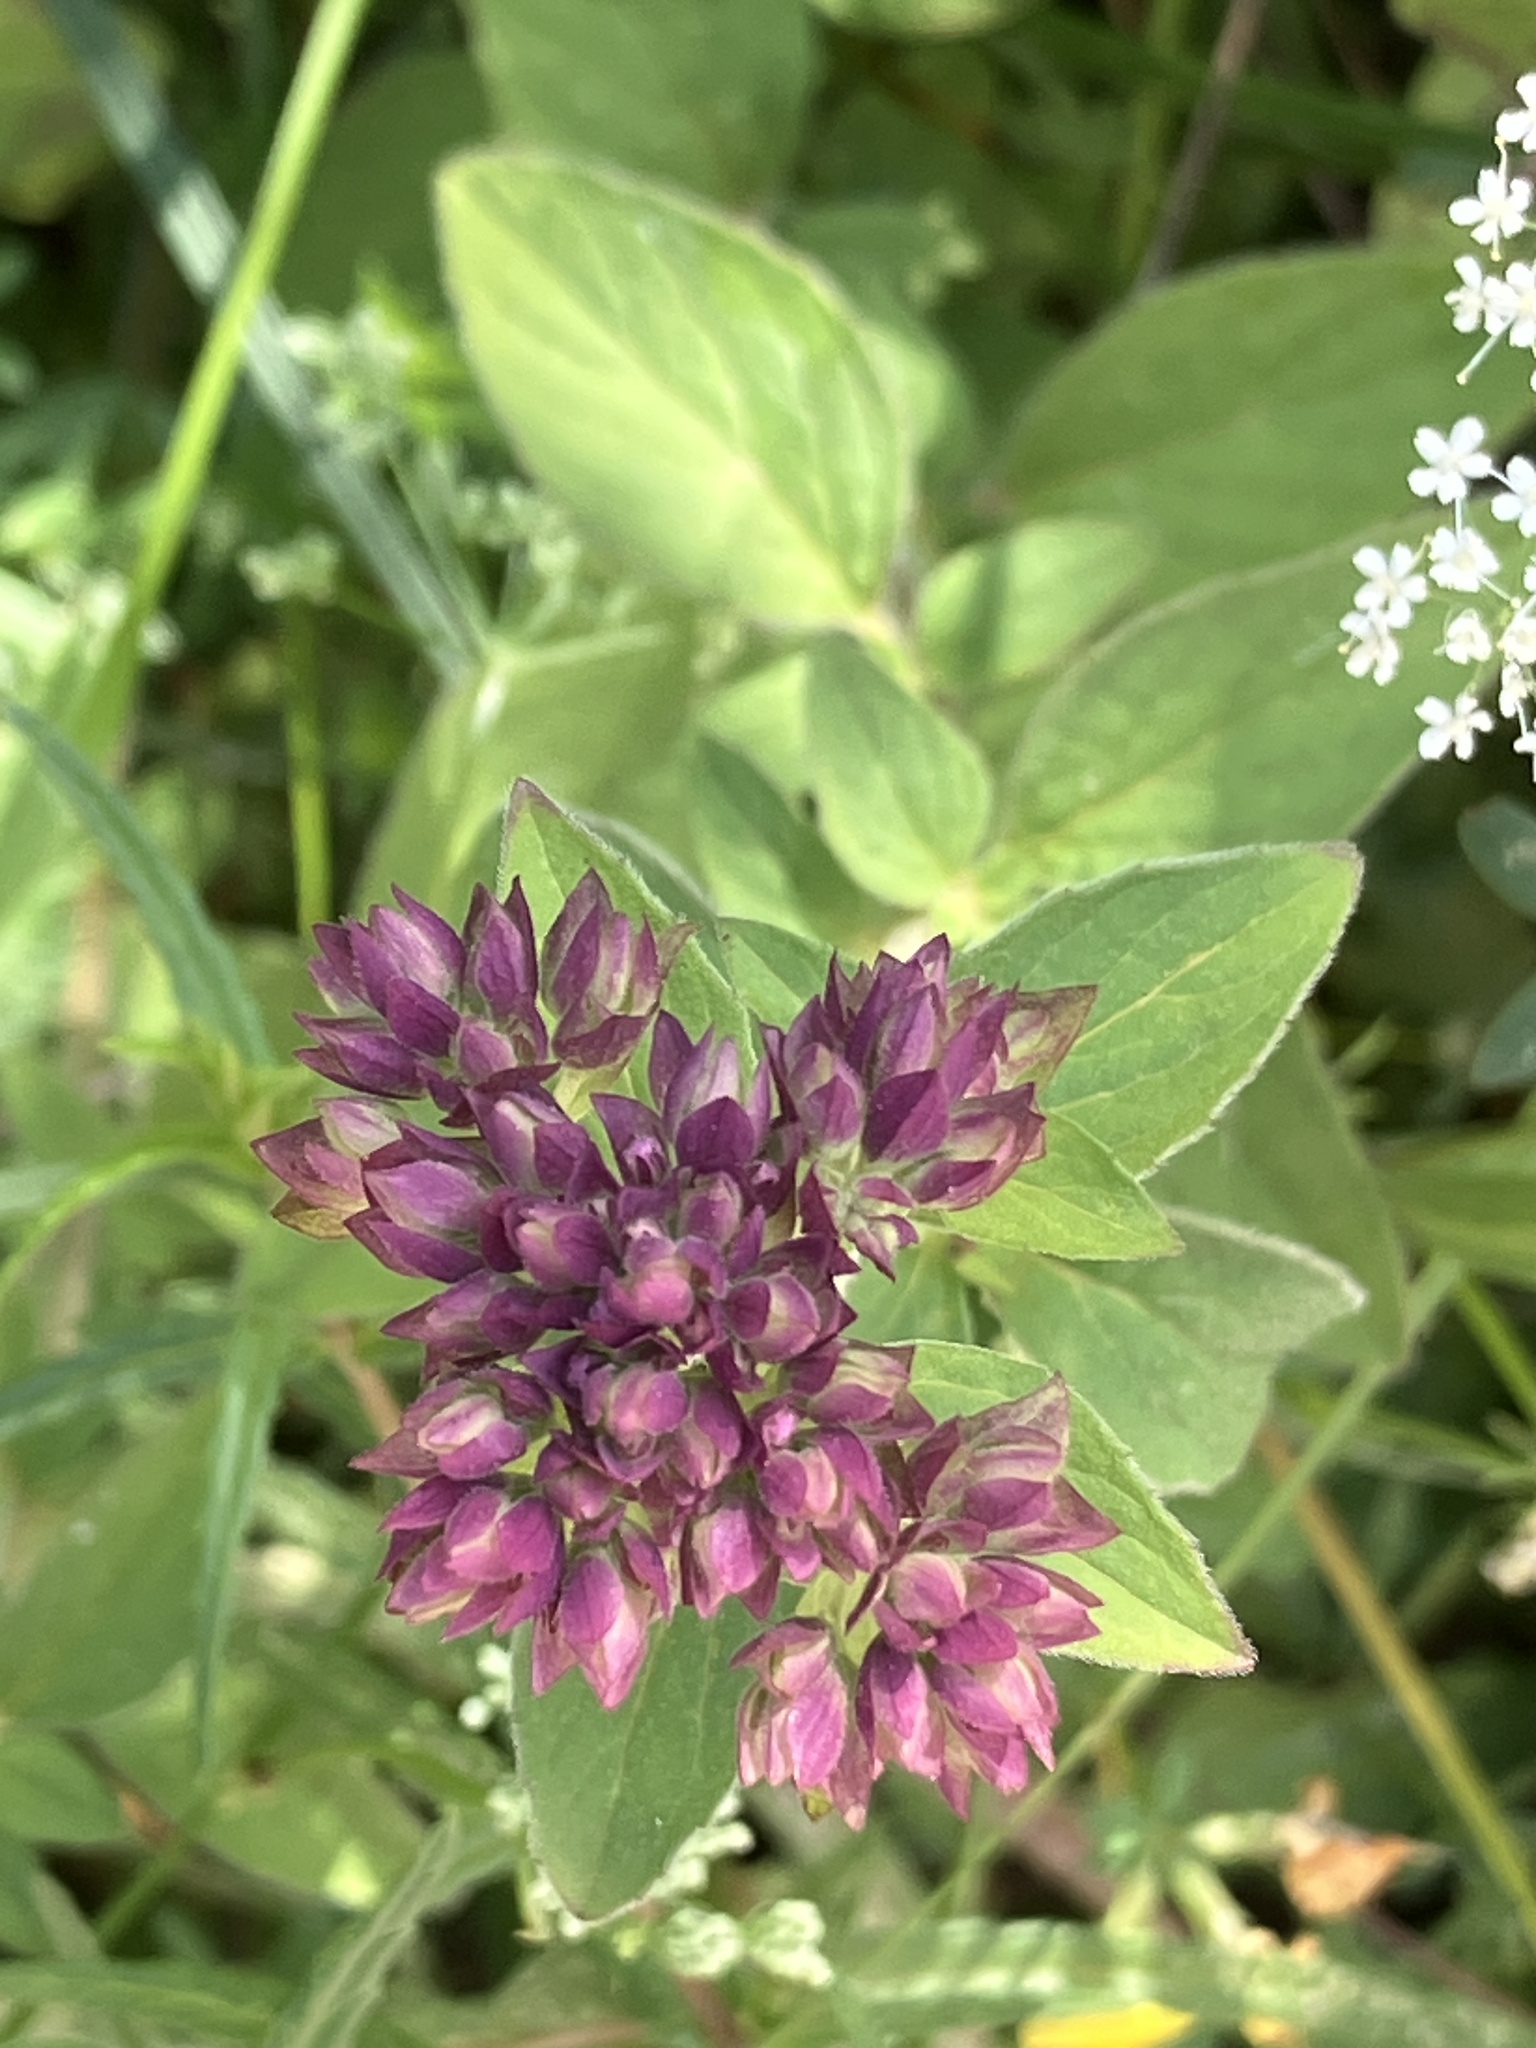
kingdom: Plantae
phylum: Tracheophyta
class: Magnoliopsida
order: Lamiales
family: Lamiaceae
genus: Origanum
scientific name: Origanum vulgare
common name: Wild marjoram
